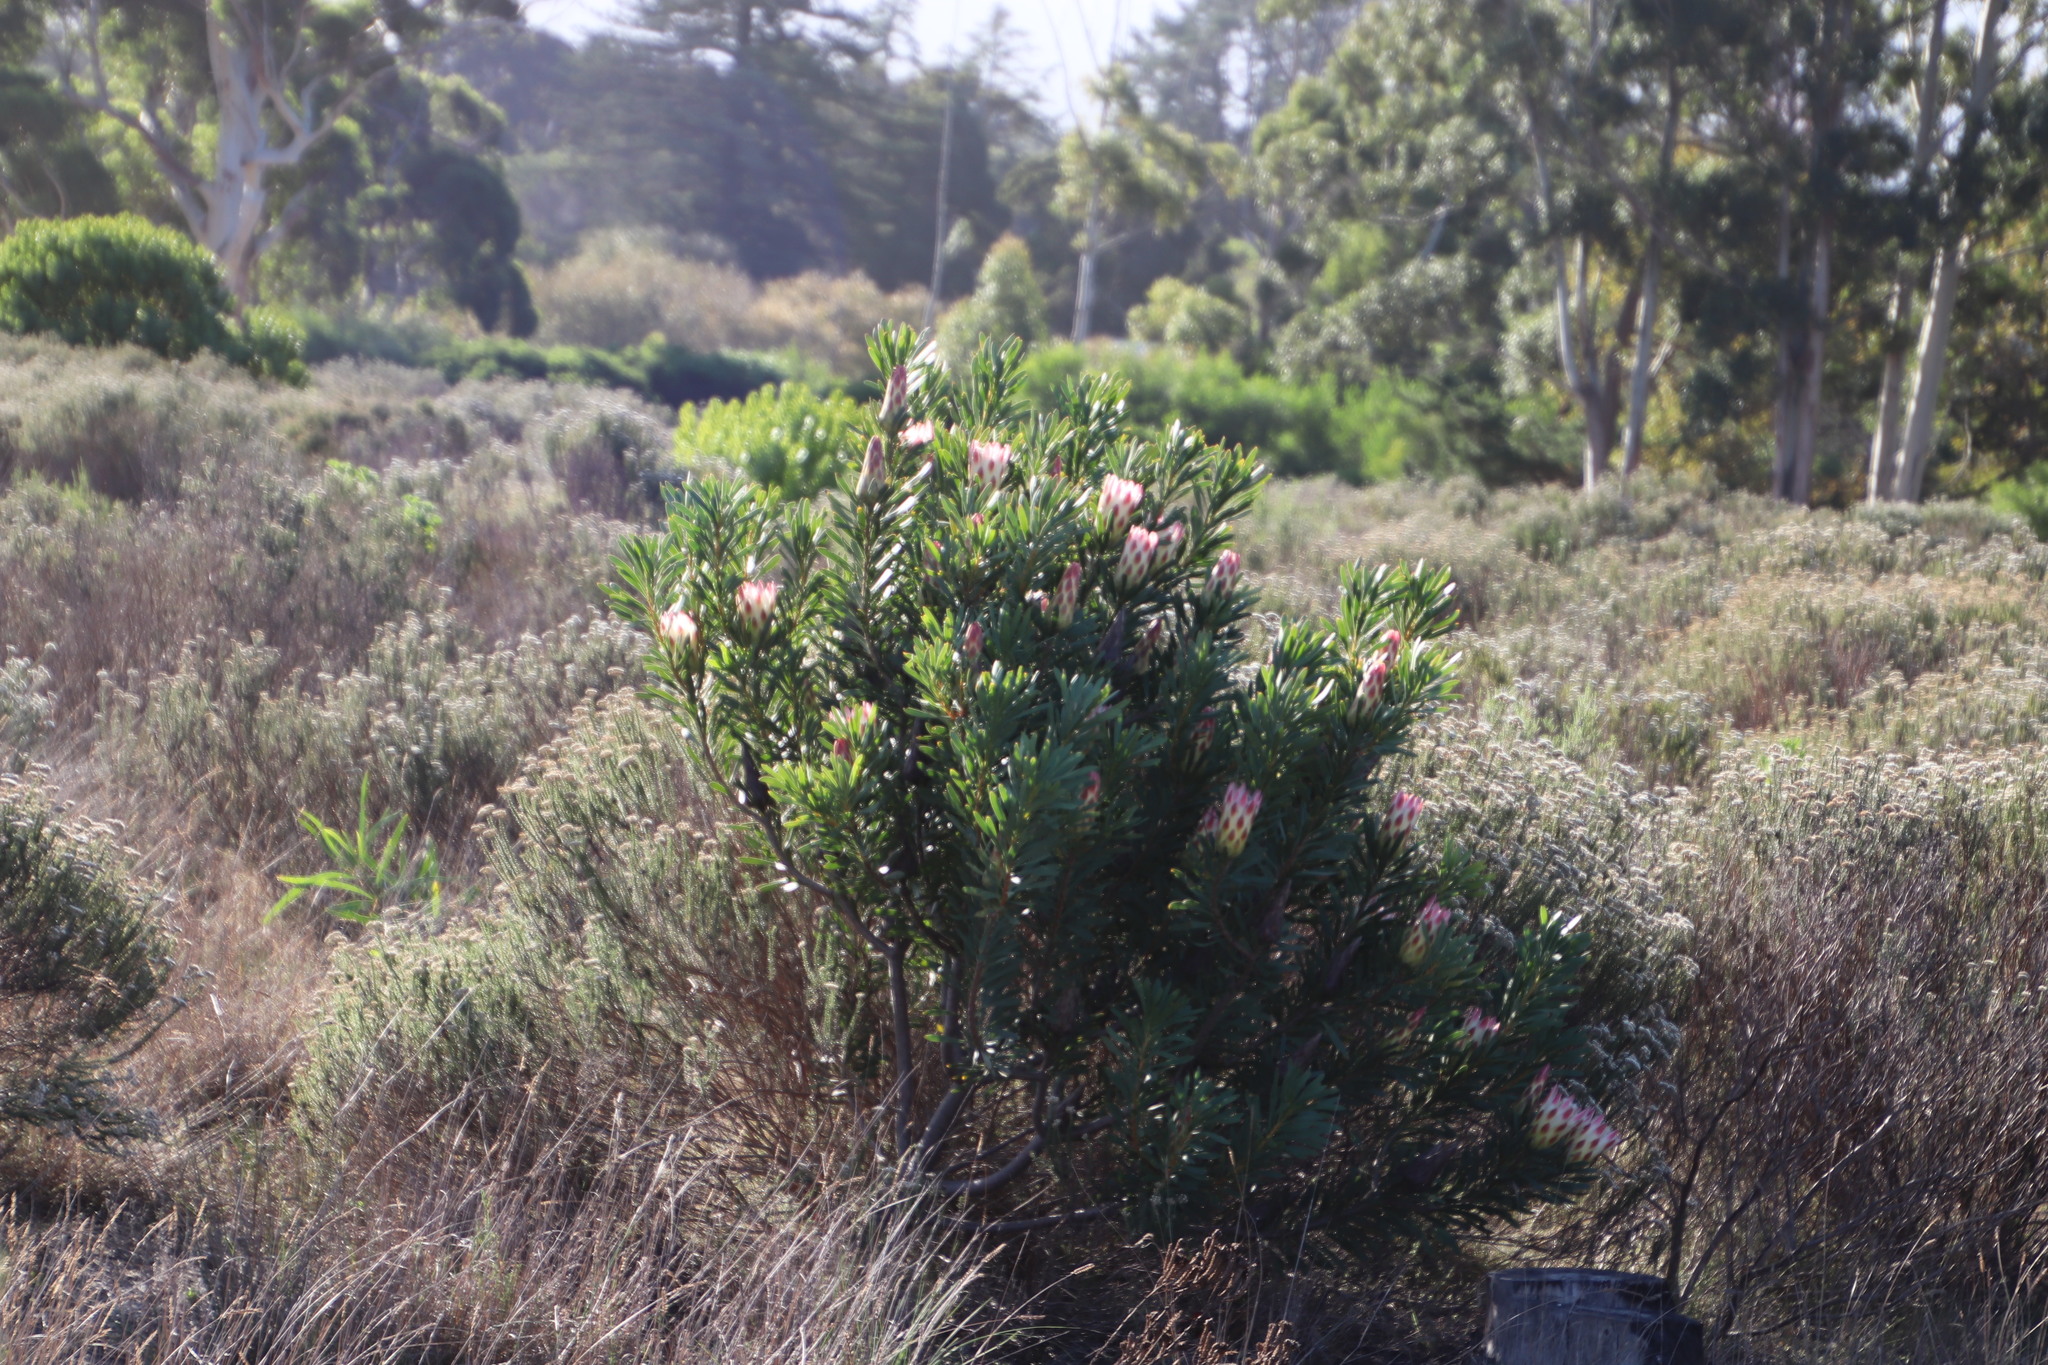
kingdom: Plantae
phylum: Tracheophyta
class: Magnoliopsida
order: Proteales
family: Proteaceae
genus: Protea
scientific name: Protea repens
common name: Sugarbush
